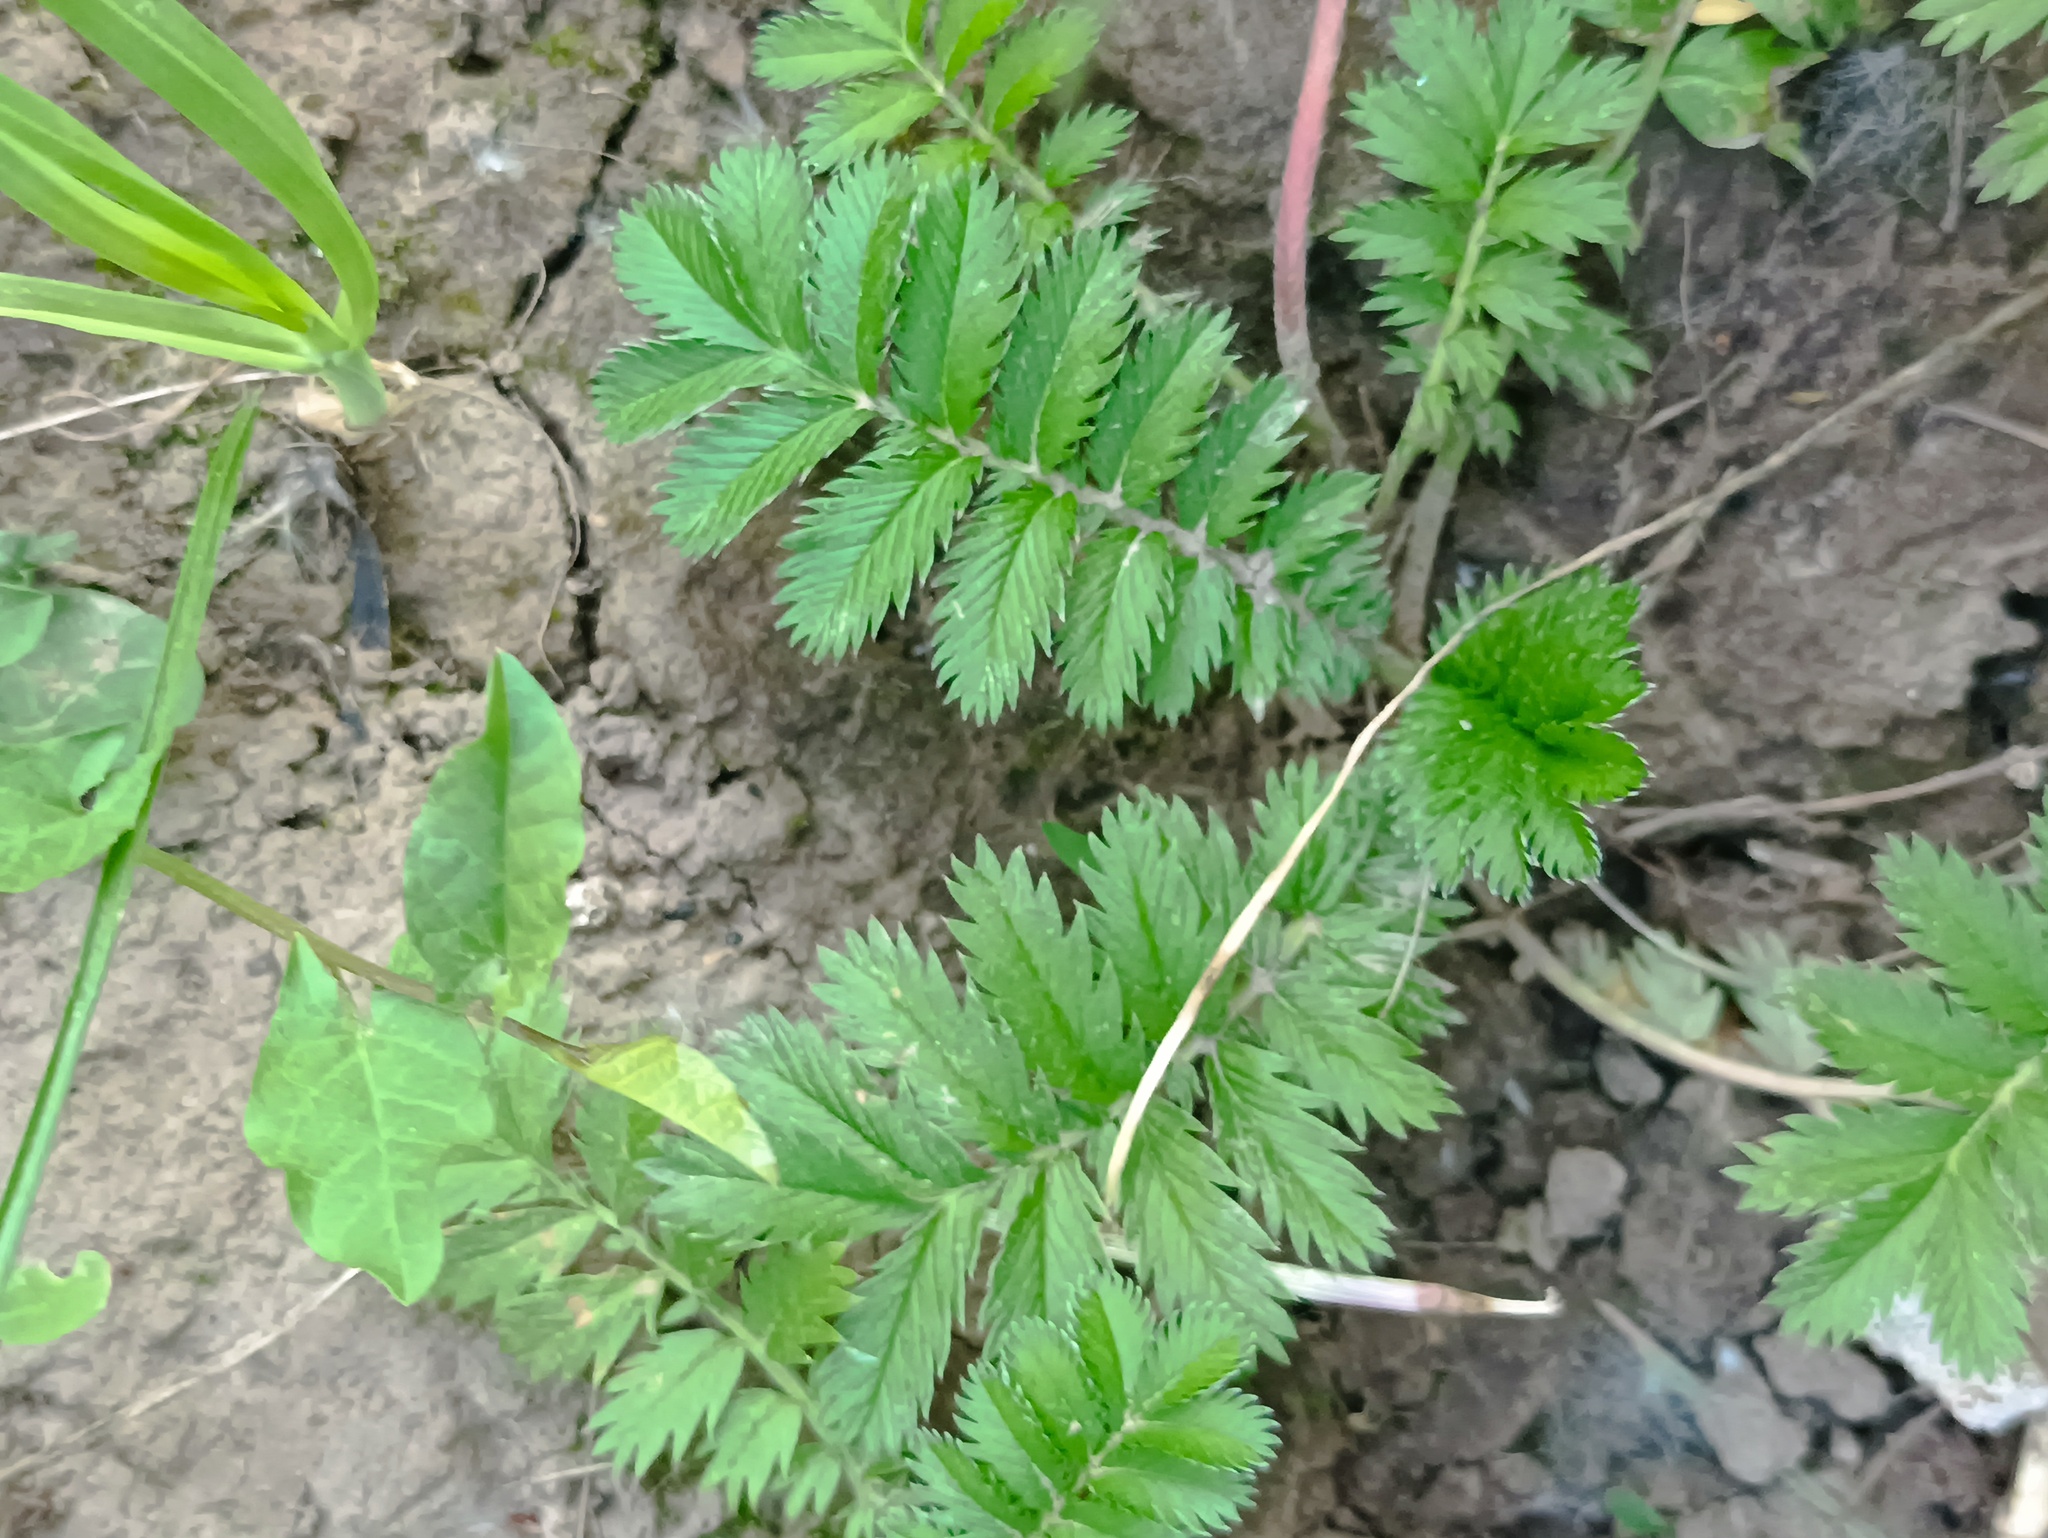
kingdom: Plantae
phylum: Tracheophyta
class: Magnoliopsida
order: Rosales
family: Rosaceae
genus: Argentina
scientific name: Argentina anserina
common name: Common silverweed
